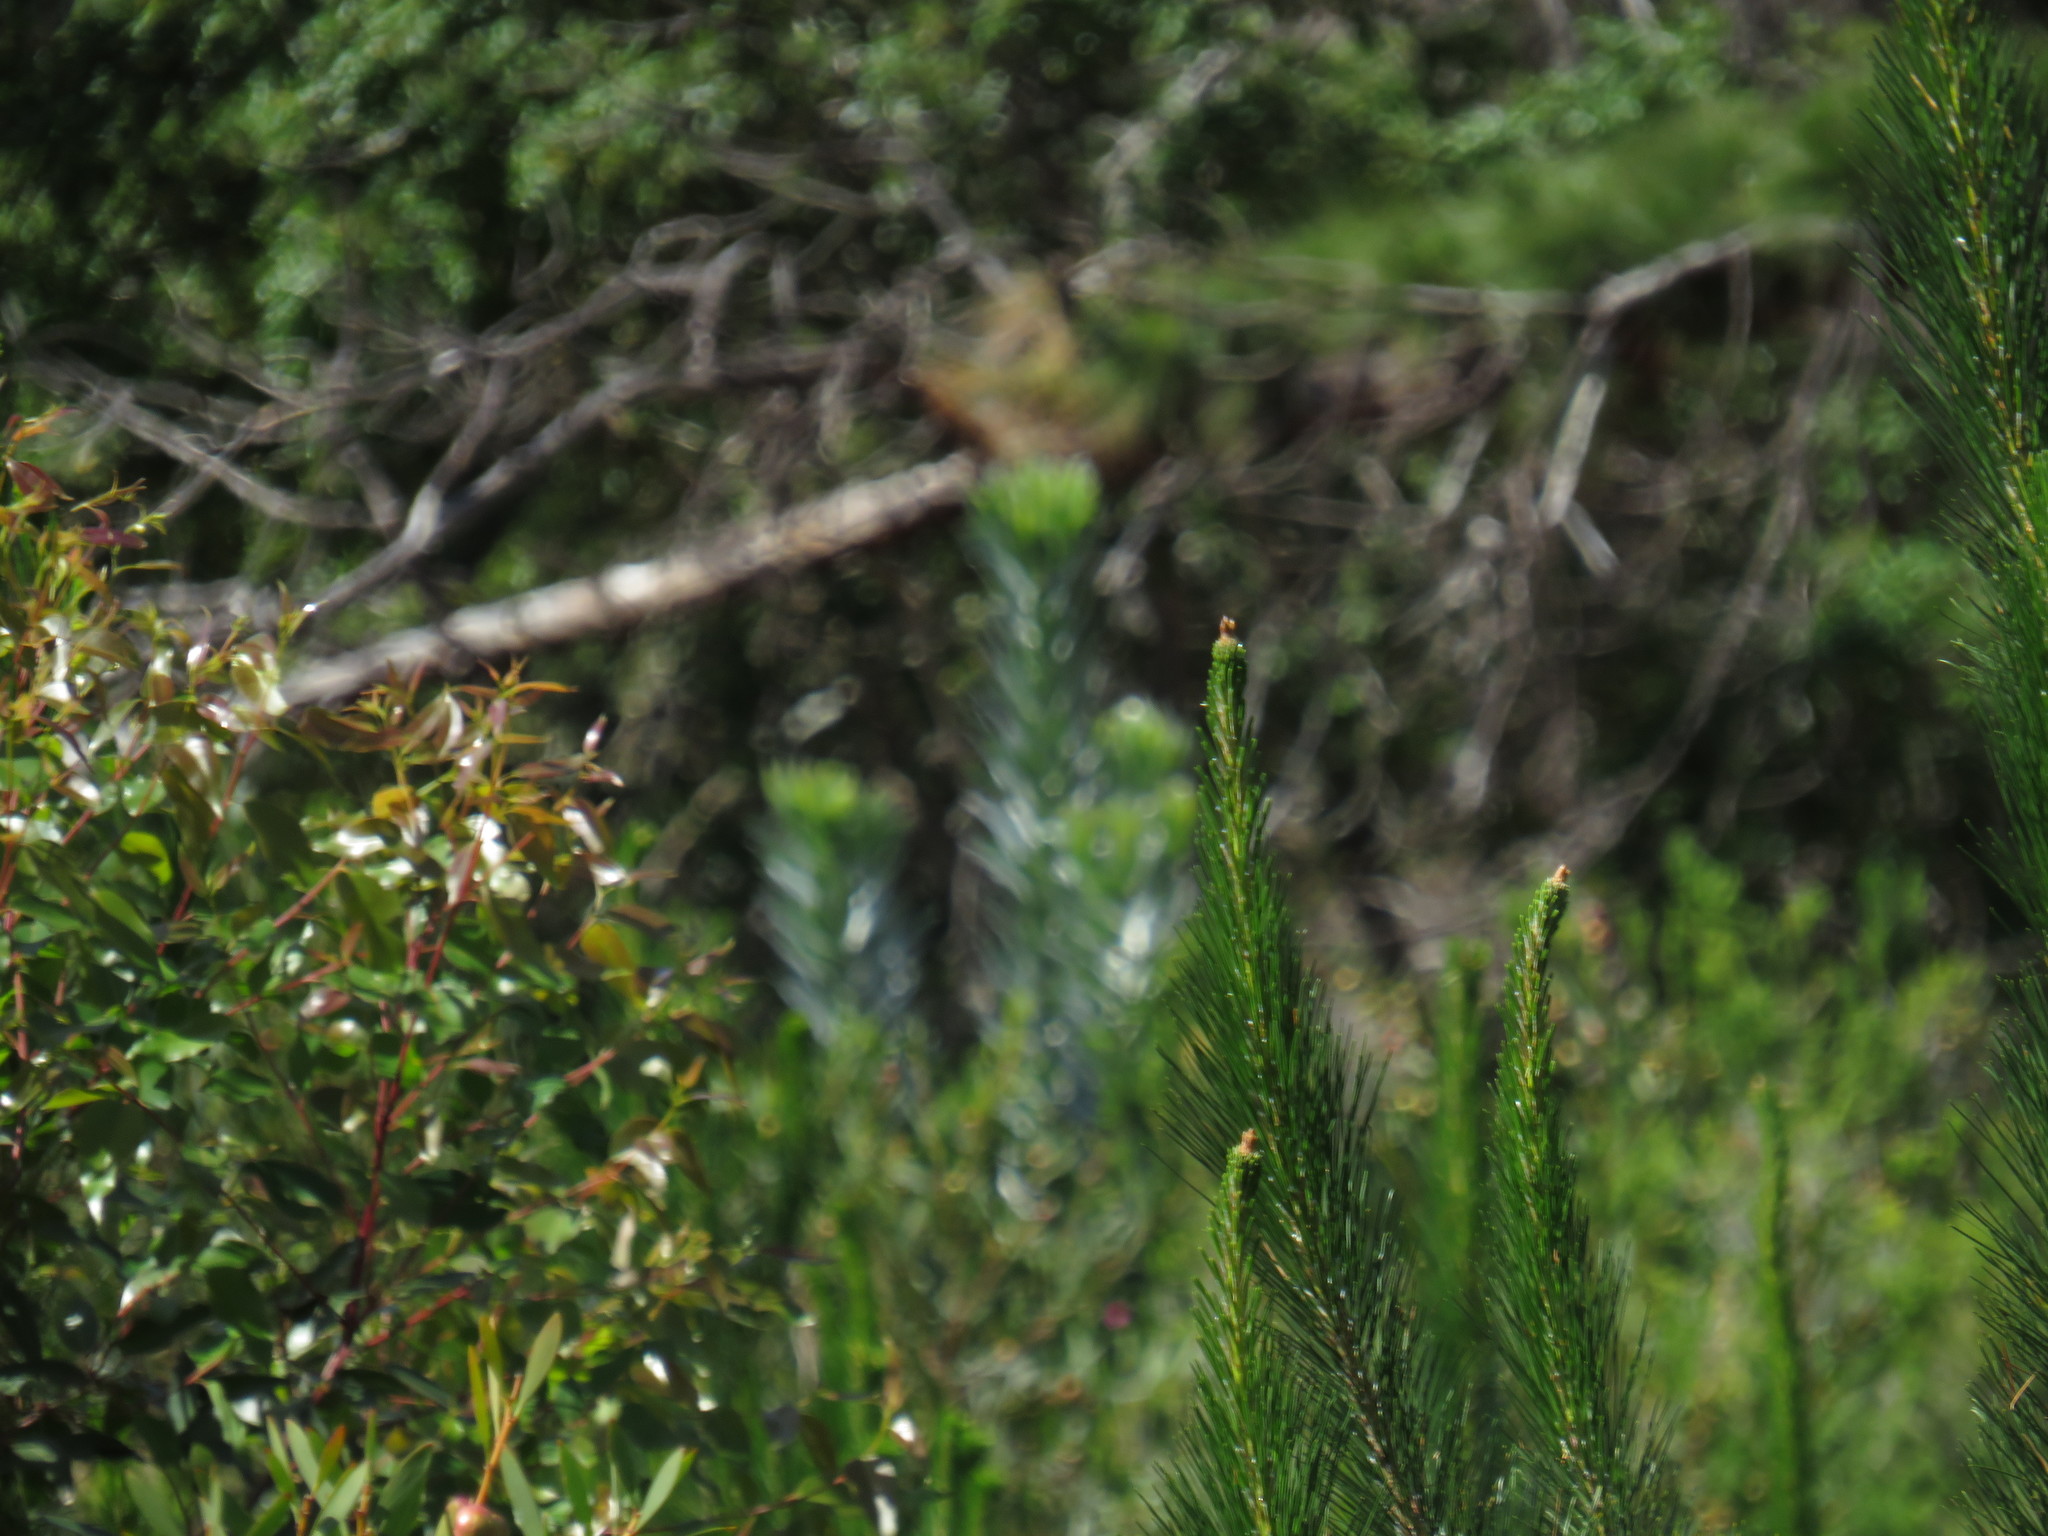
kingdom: Plantae
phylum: Tracheophyta
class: Magnoliopsida
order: Proteales
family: Proteaceae
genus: Leucadendron
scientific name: Leucadendron argenteum
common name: Cape silver tree
